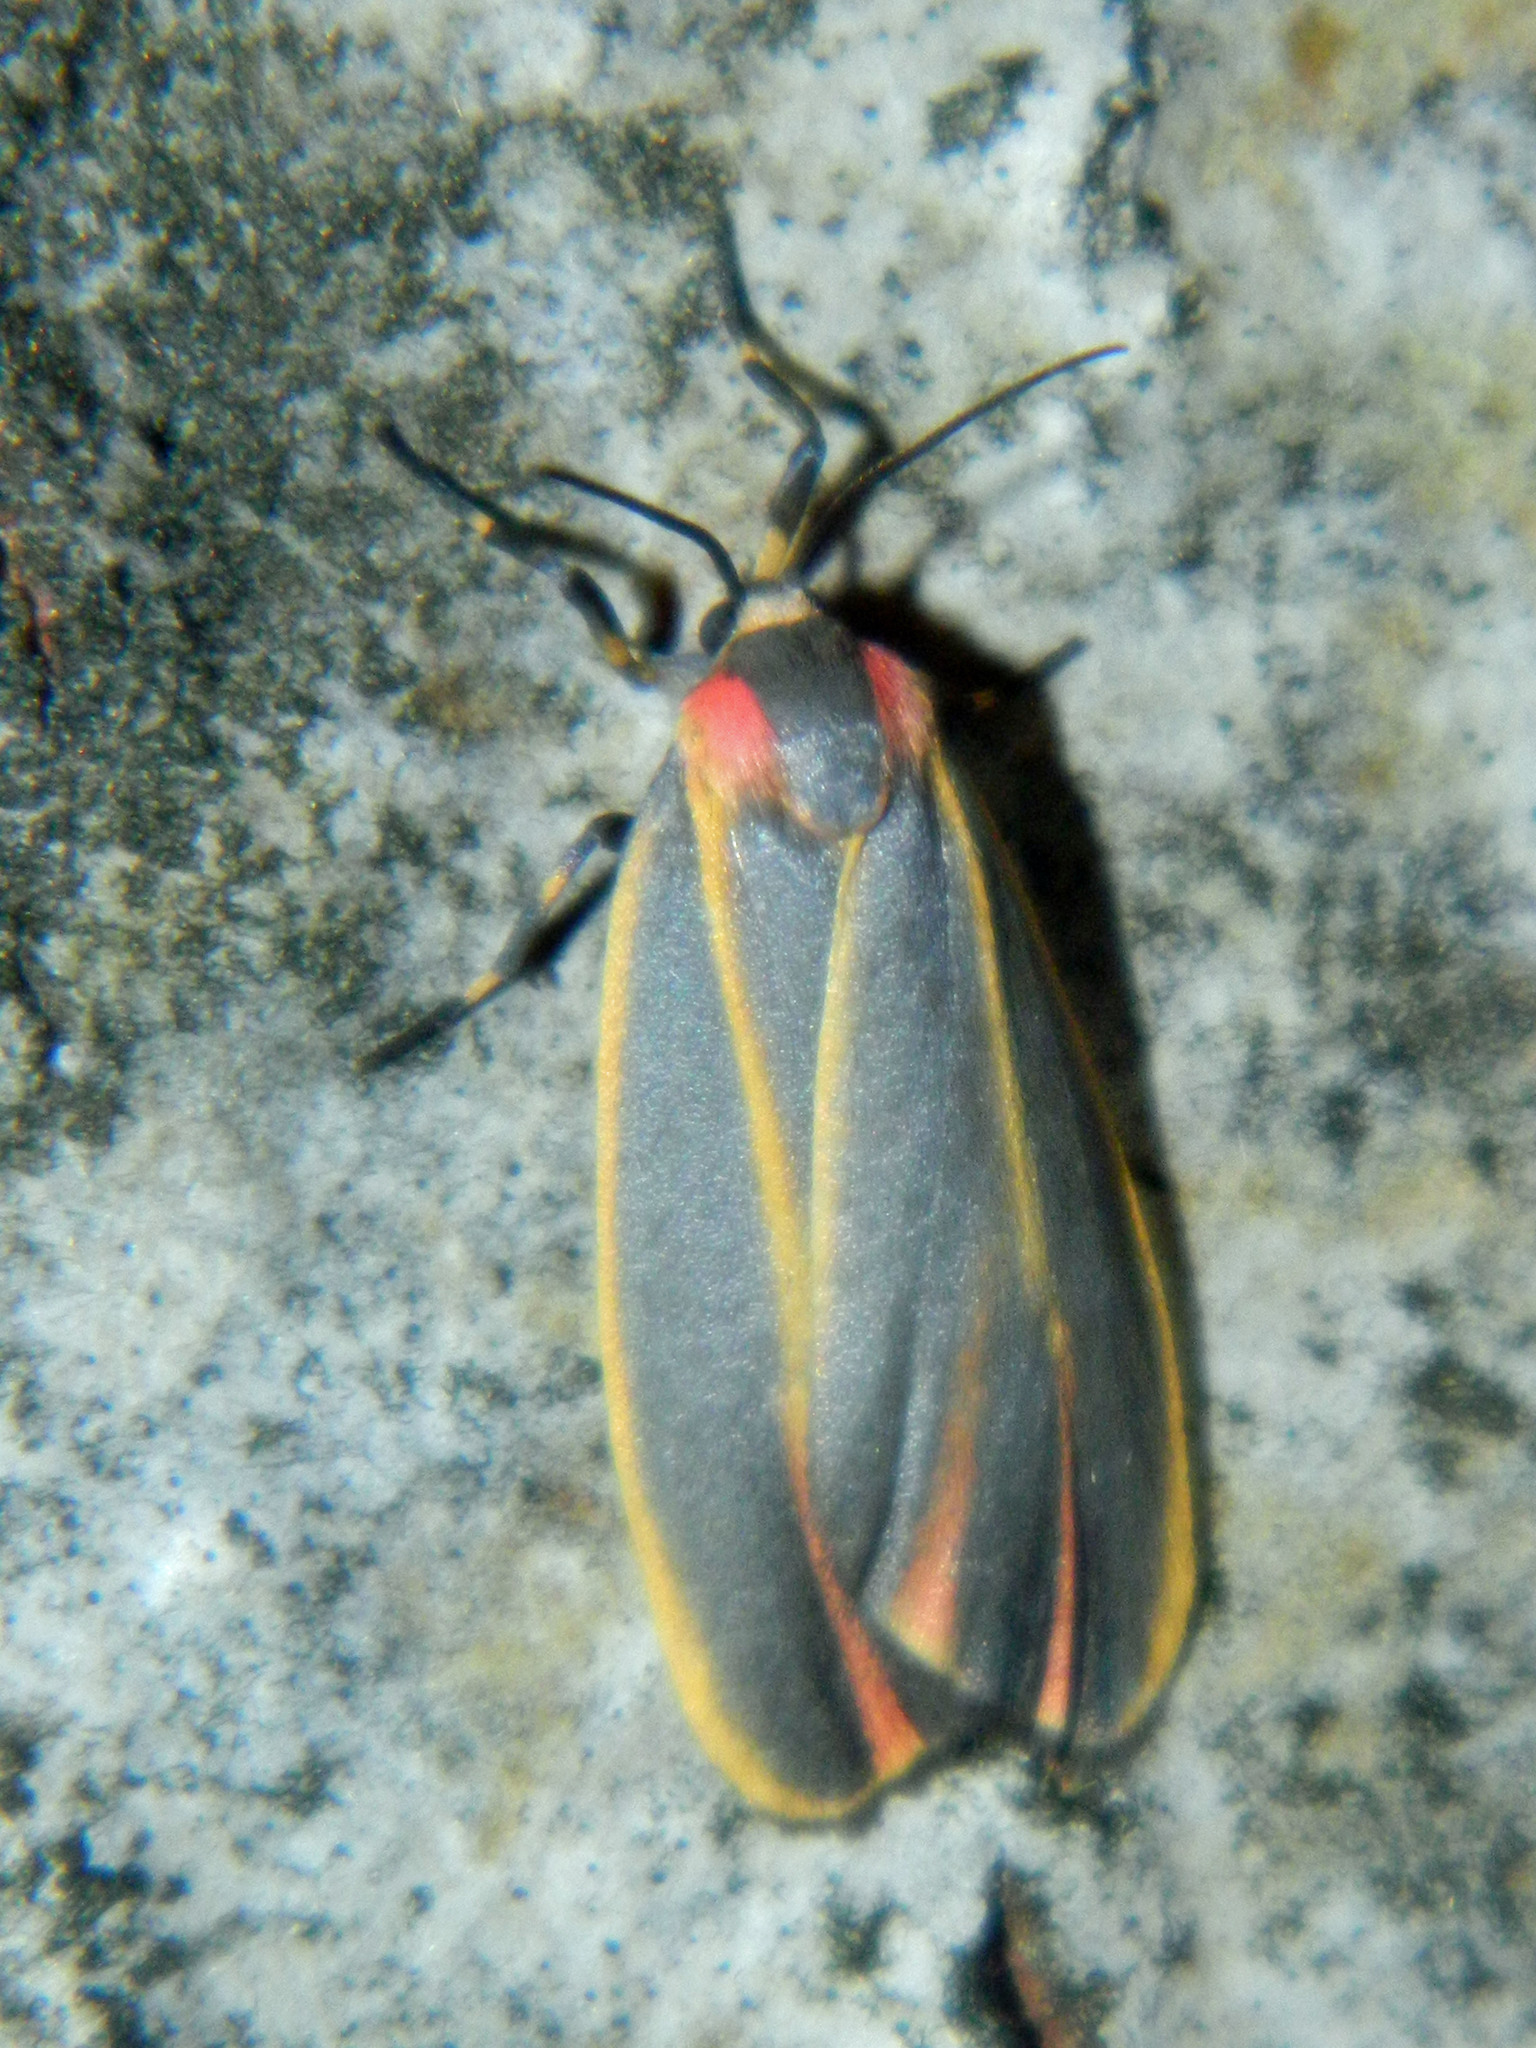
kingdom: Animalia
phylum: Arthropoda
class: Insecta
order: Lepidoptera
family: Erebidae
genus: Hypoprepia
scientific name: Hypoprepia fucosa
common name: Painted lichen moth
